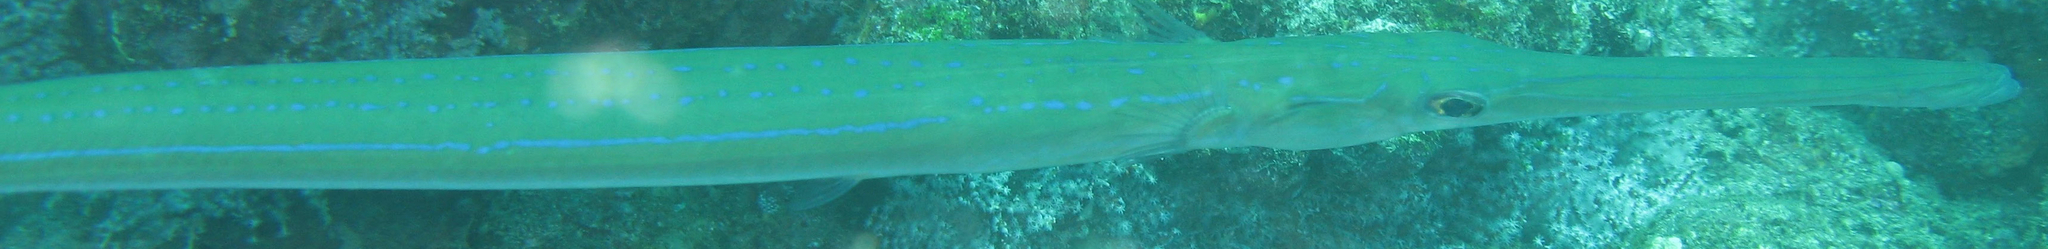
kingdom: Animalia
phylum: Chordata
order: Syngnathiformes
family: Fistulariidae
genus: Fistularia
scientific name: Fistularia commersonii
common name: Bluespotted cornetfish
